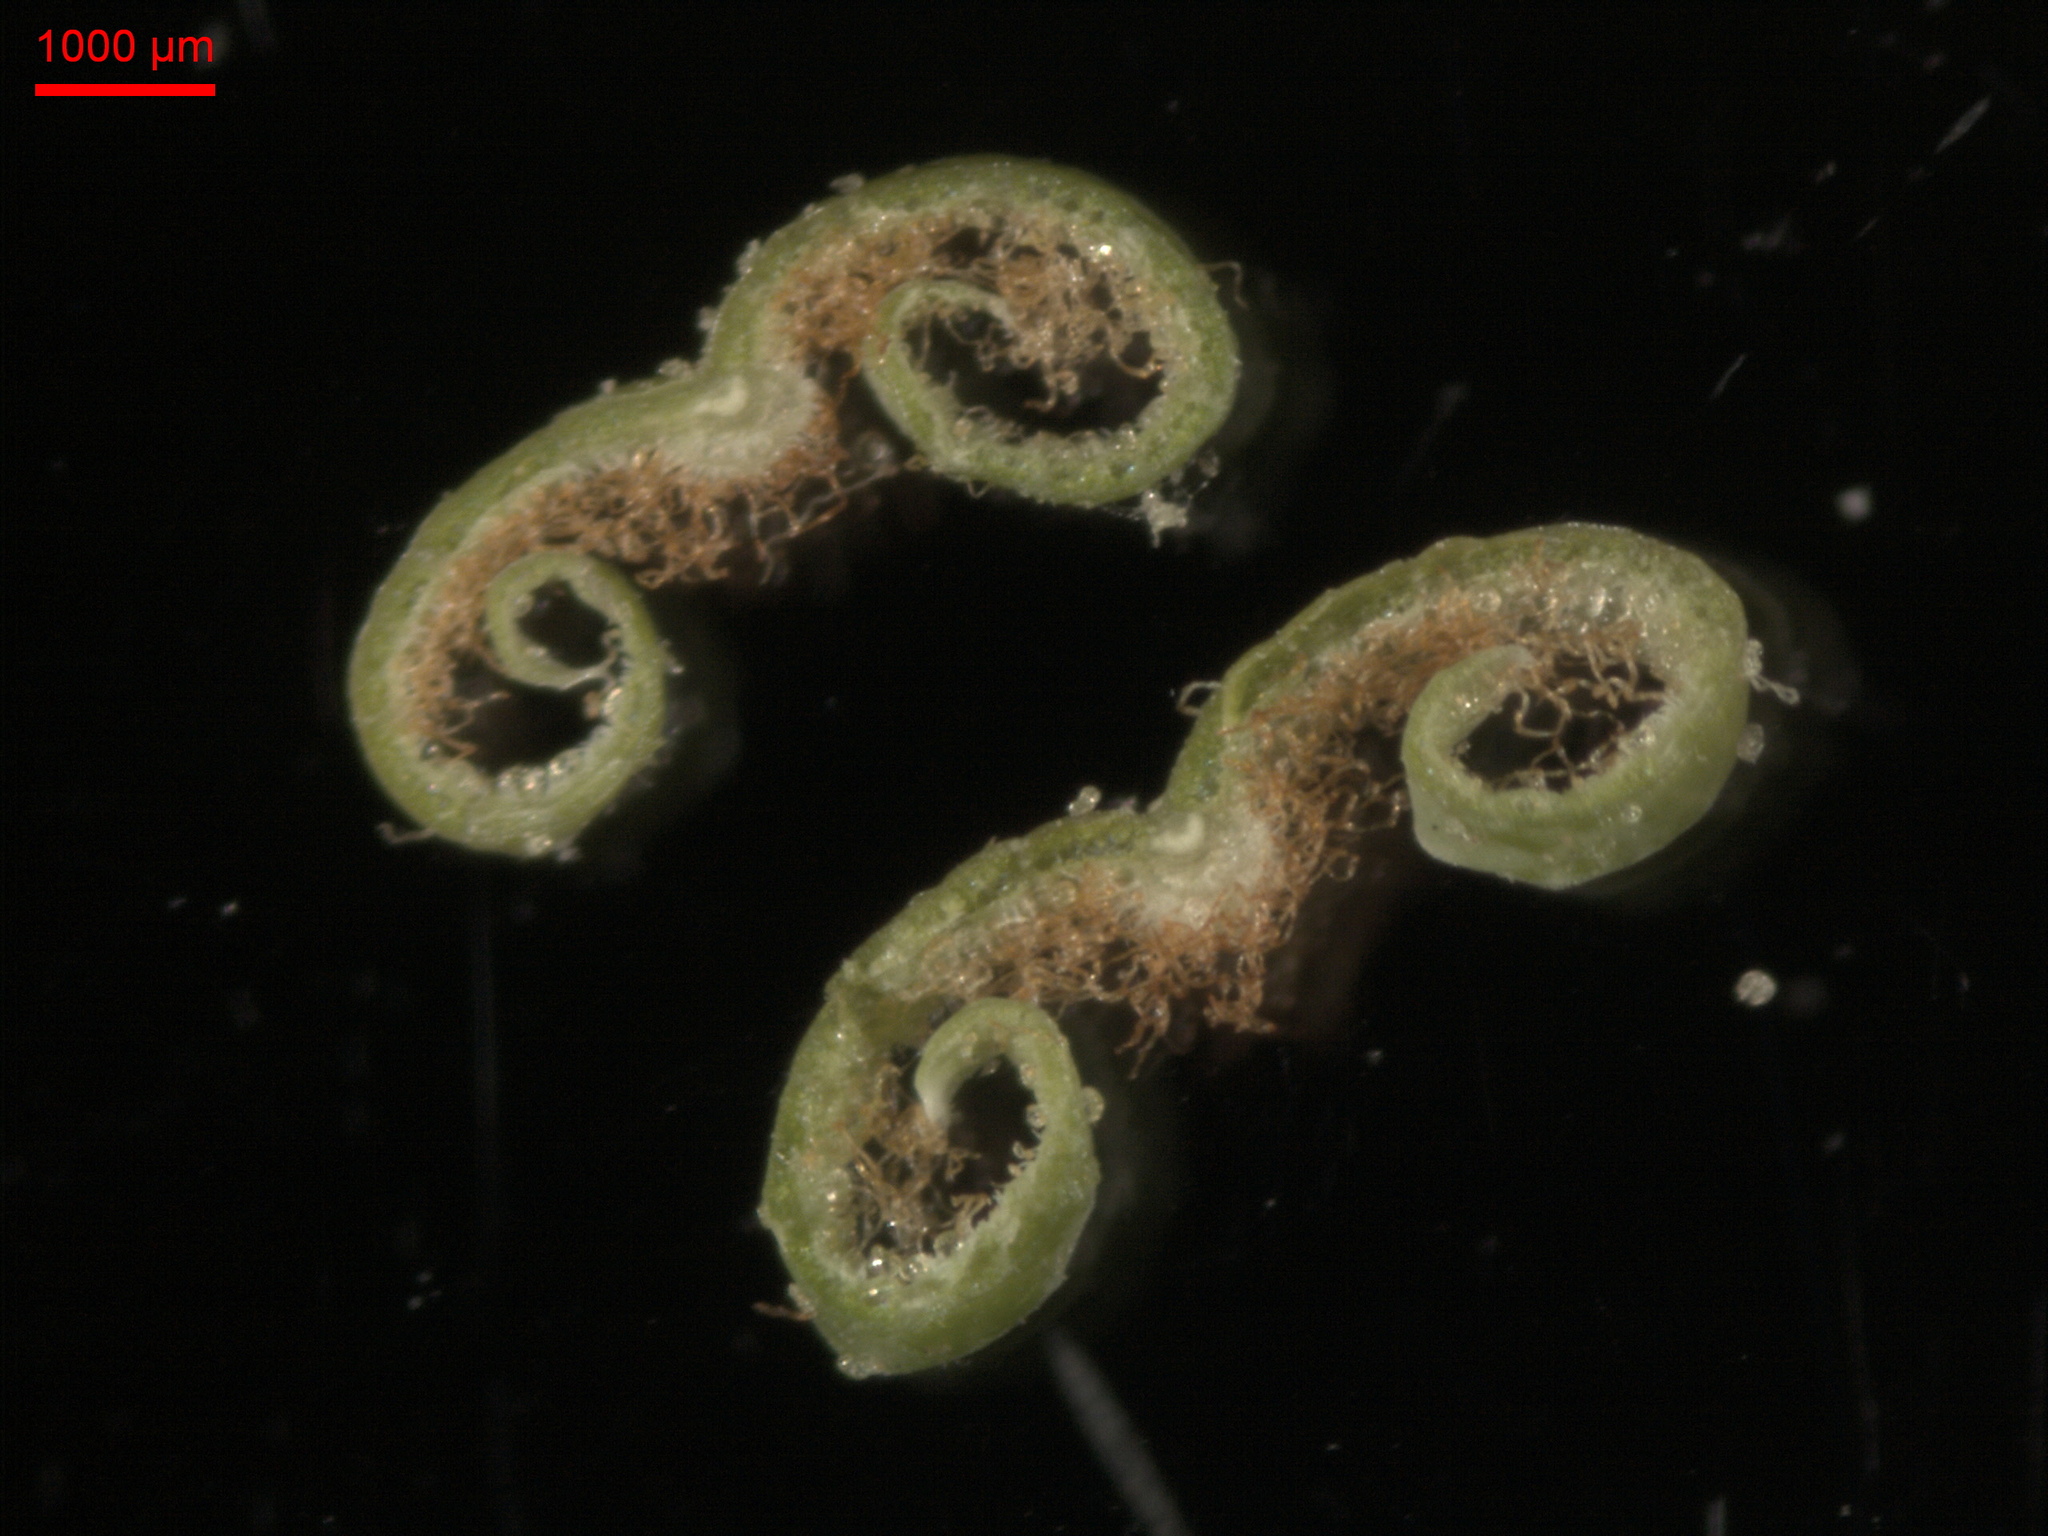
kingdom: Plantae
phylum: Tracheophyta
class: Magnoliopsida
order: Ericales
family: Ericaceae
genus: Rhododendron
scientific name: Rhododendron tomentosum
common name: Marsh labrador tea
